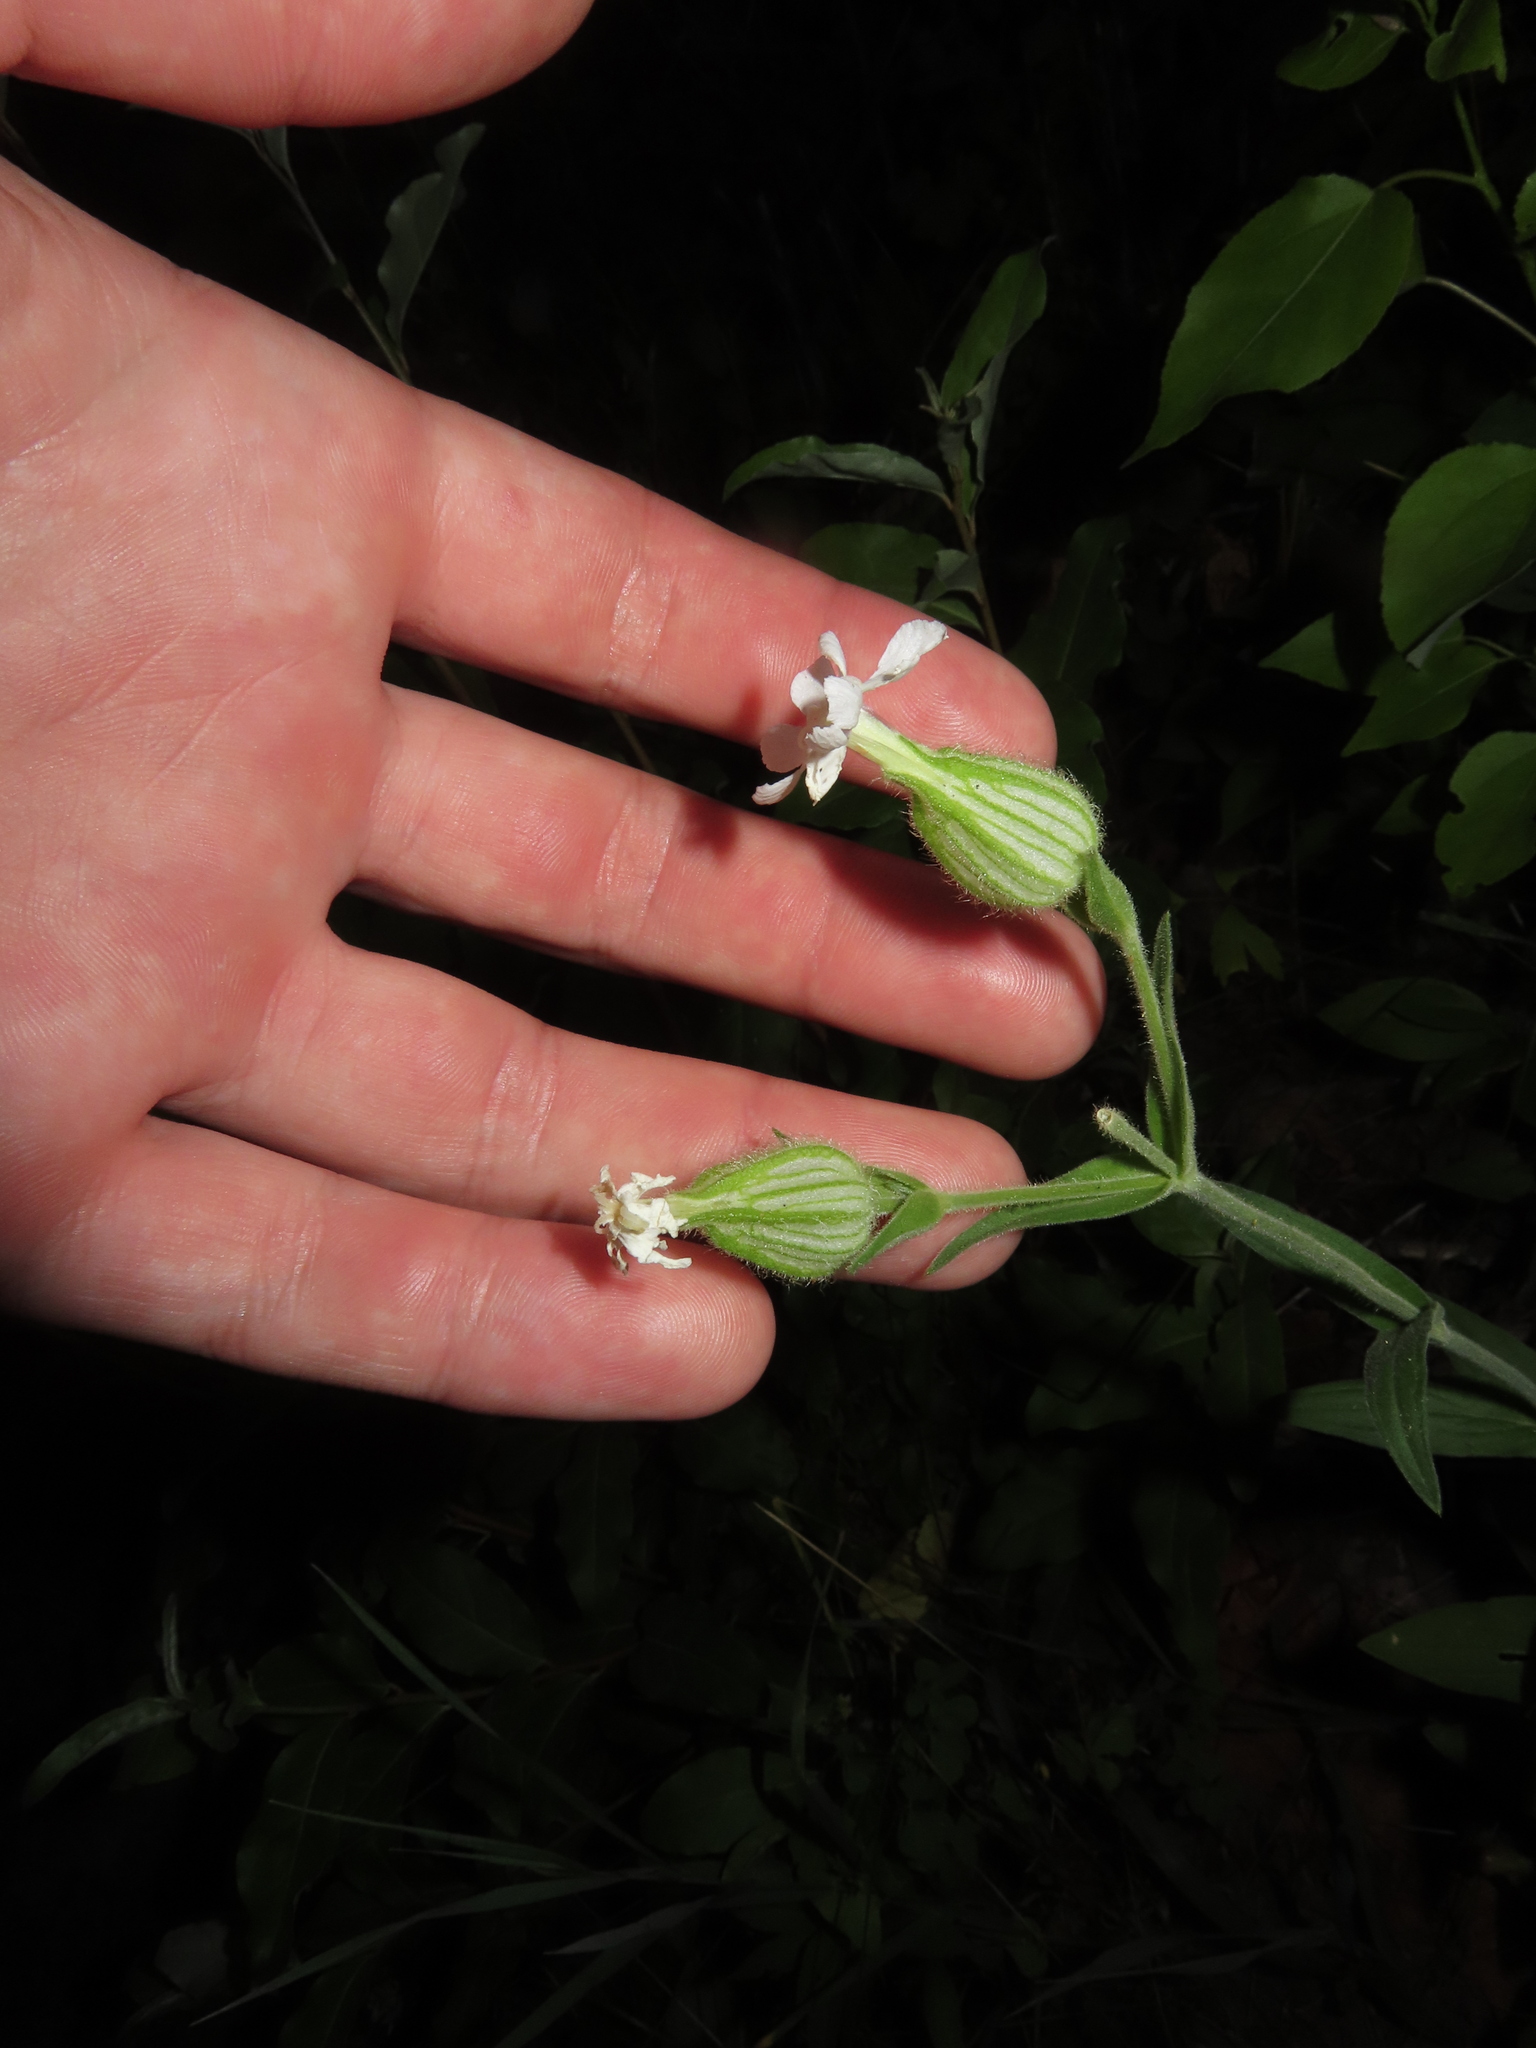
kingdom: Plantae
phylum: Tracheophyta
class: Magnoliopsida
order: Caryophyllales
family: Caryophyllaceae
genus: Silene
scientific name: Silene latifolia
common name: White campion
